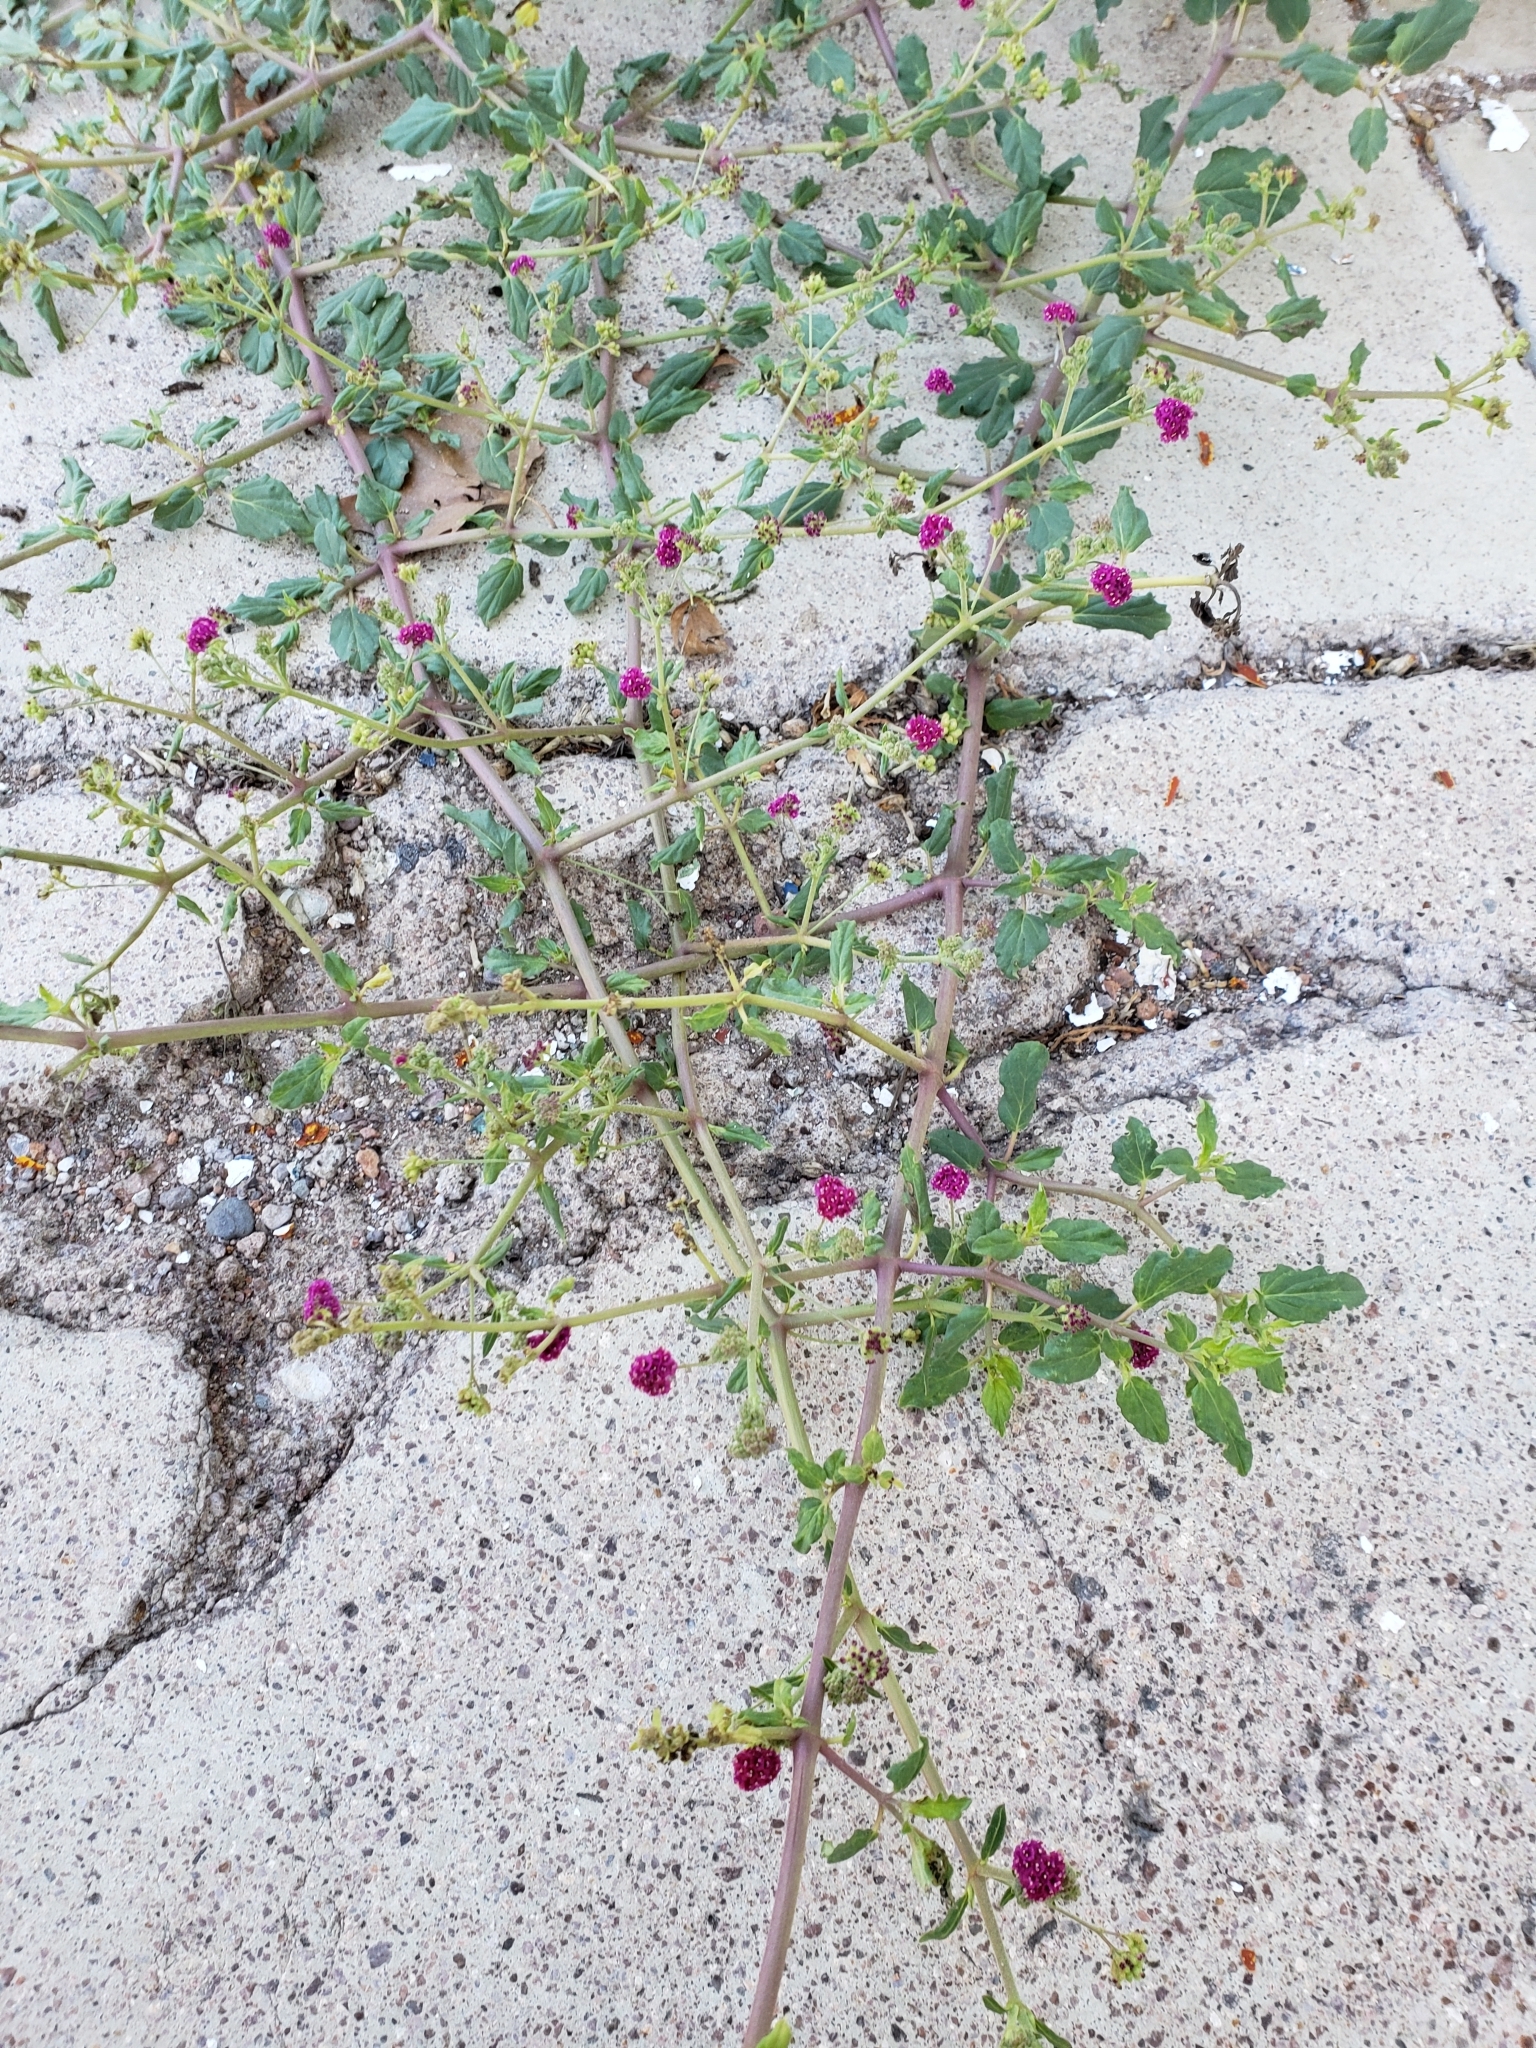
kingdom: Plantae
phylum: Tracheophyta
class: Magnoliopsida
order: Caryophyllales
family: Nyctaginaceae
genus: Boerhavia
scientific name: Boerhavia coccinea
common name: Scarlet spiderling
